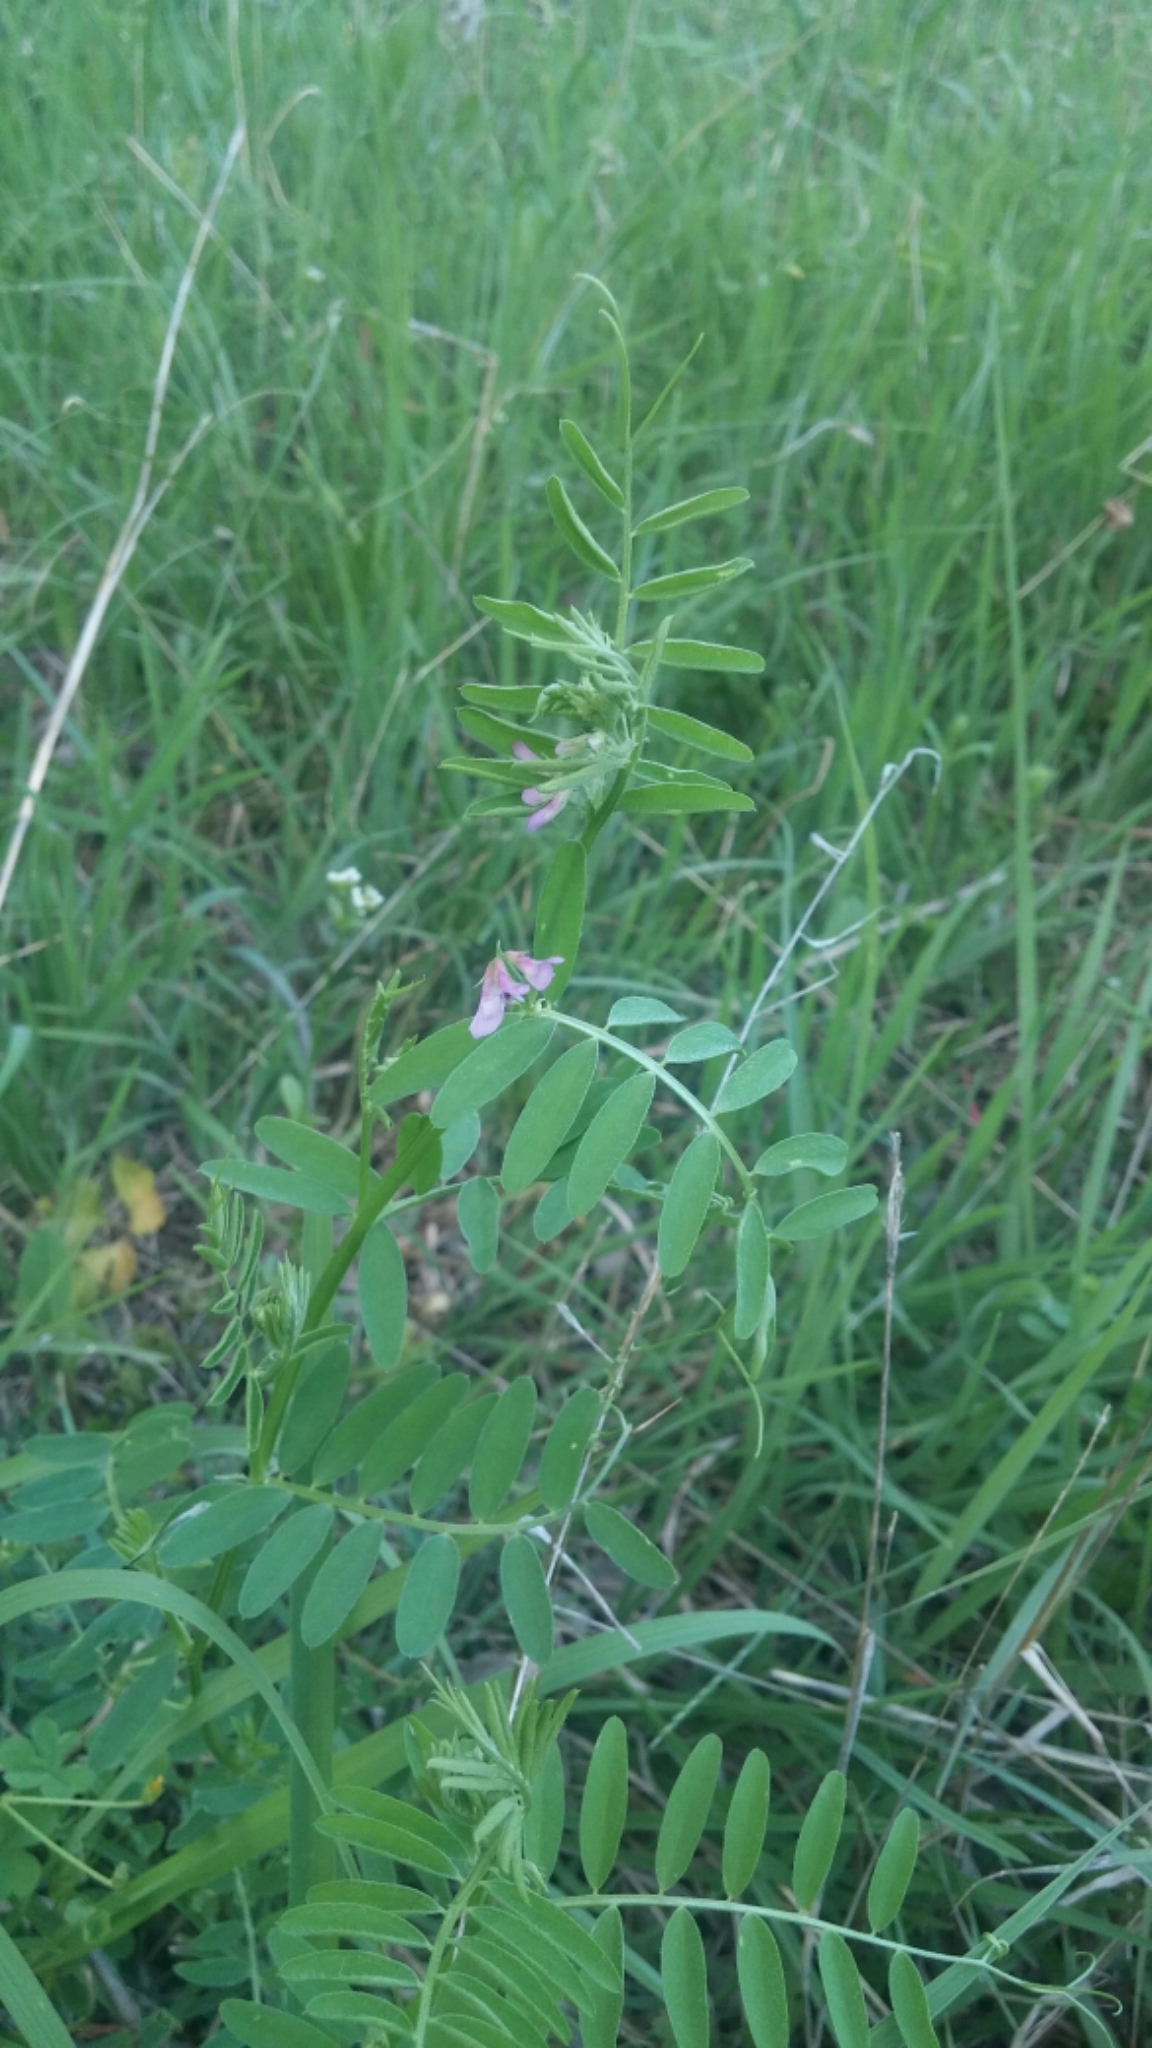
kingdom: Plantae
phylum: Tracheophyta
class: Magnoliopsida
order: Fabales
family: Fabaceae
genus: Vicia
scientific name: Vicia ludoviciana
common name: Louisiana vetch
